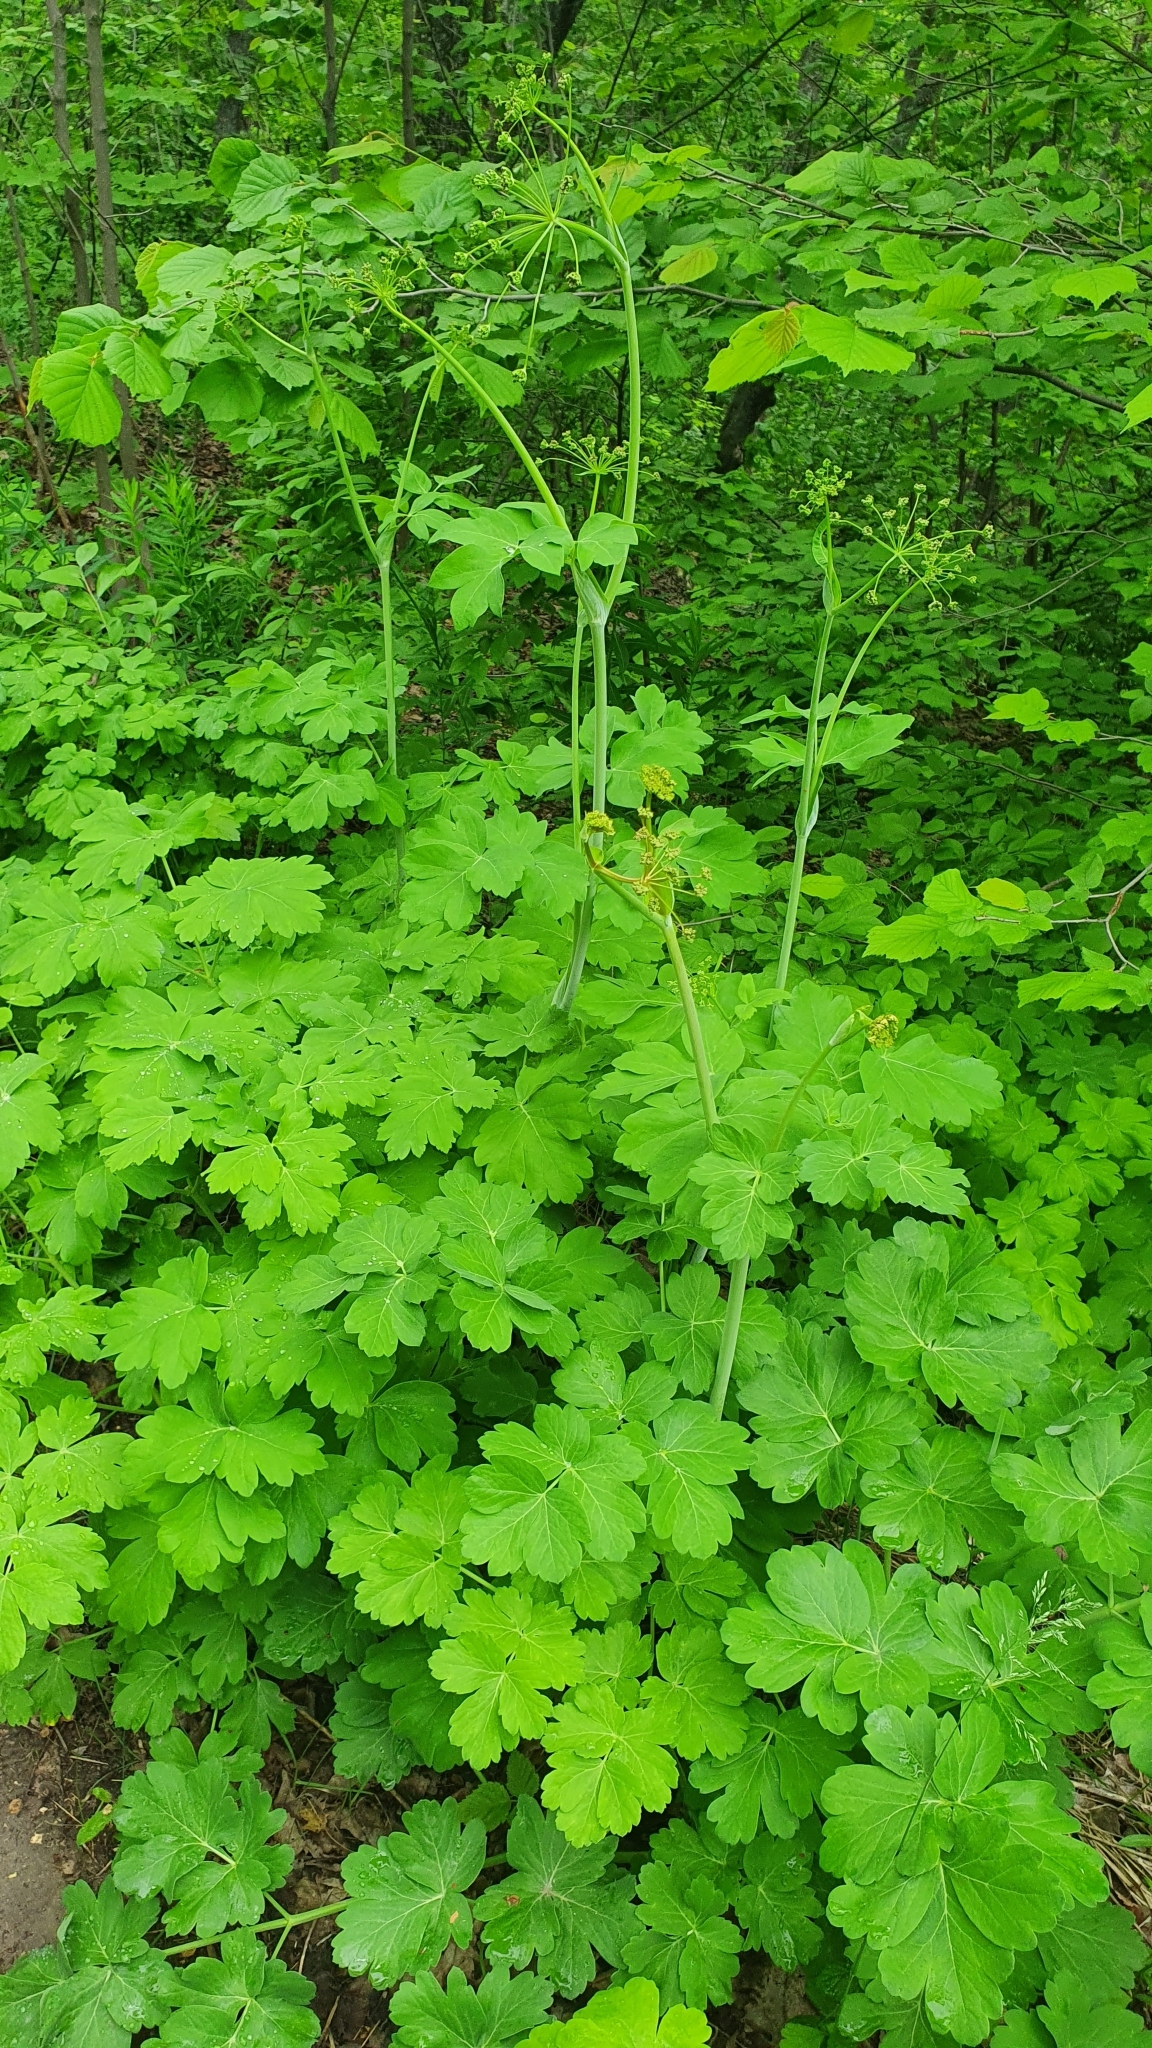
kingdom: Plantae
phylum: Tracheophyta
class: Magnoliopsida
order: Apiales
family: Apiaceae
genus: Laser
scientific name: Laser trilobum
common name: Laser
